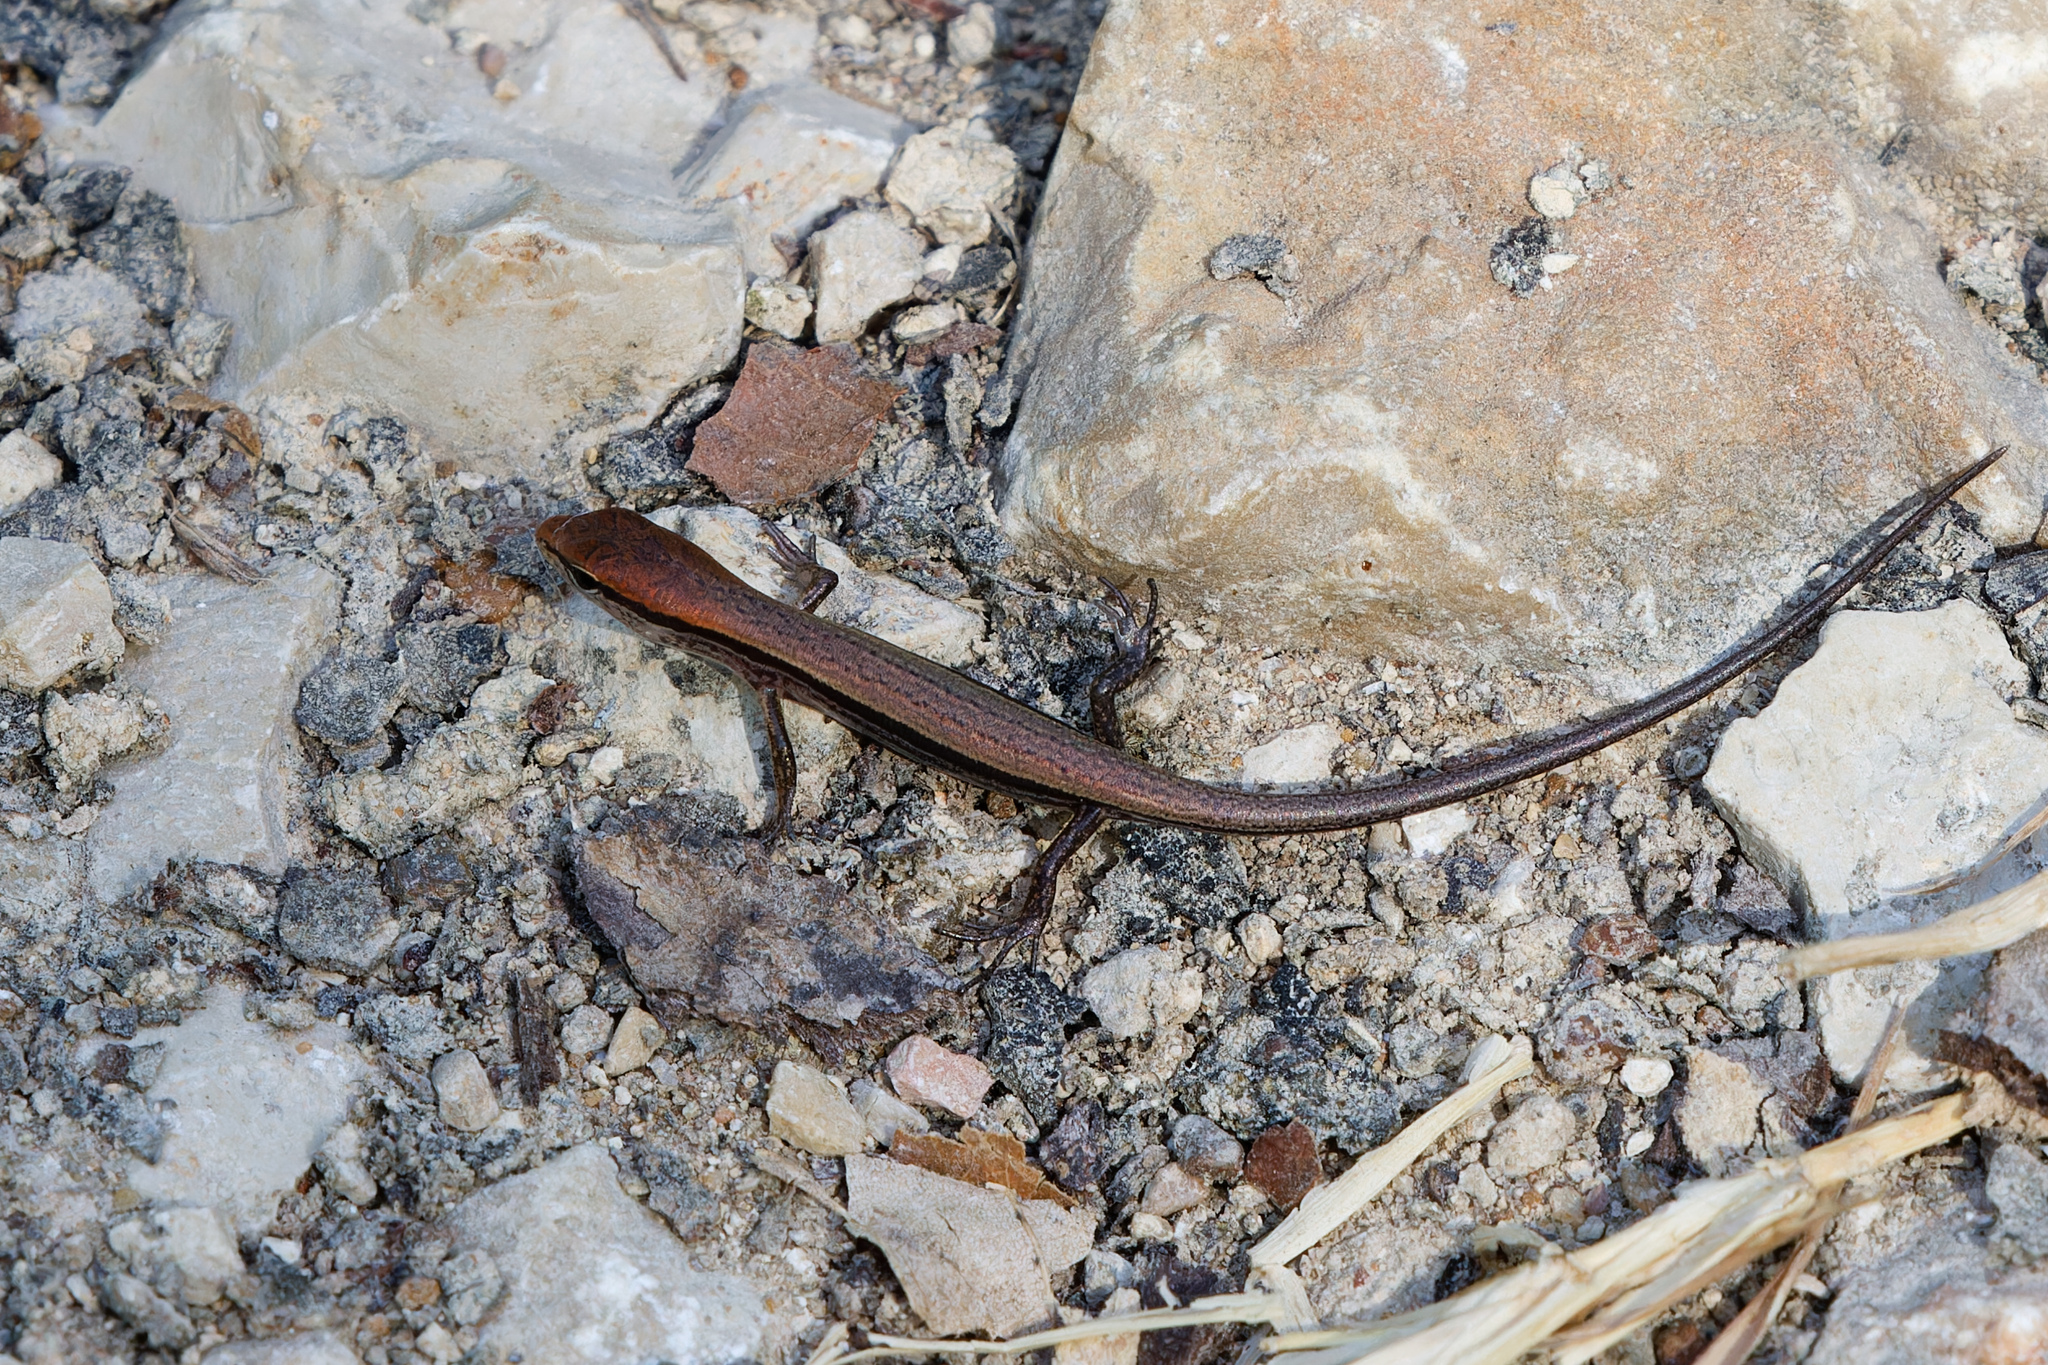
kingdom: Animalia
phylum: Chordata
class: Squamata
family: Scincidae
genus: Scincella
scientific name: Scincella lateralis
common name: Ground skink
